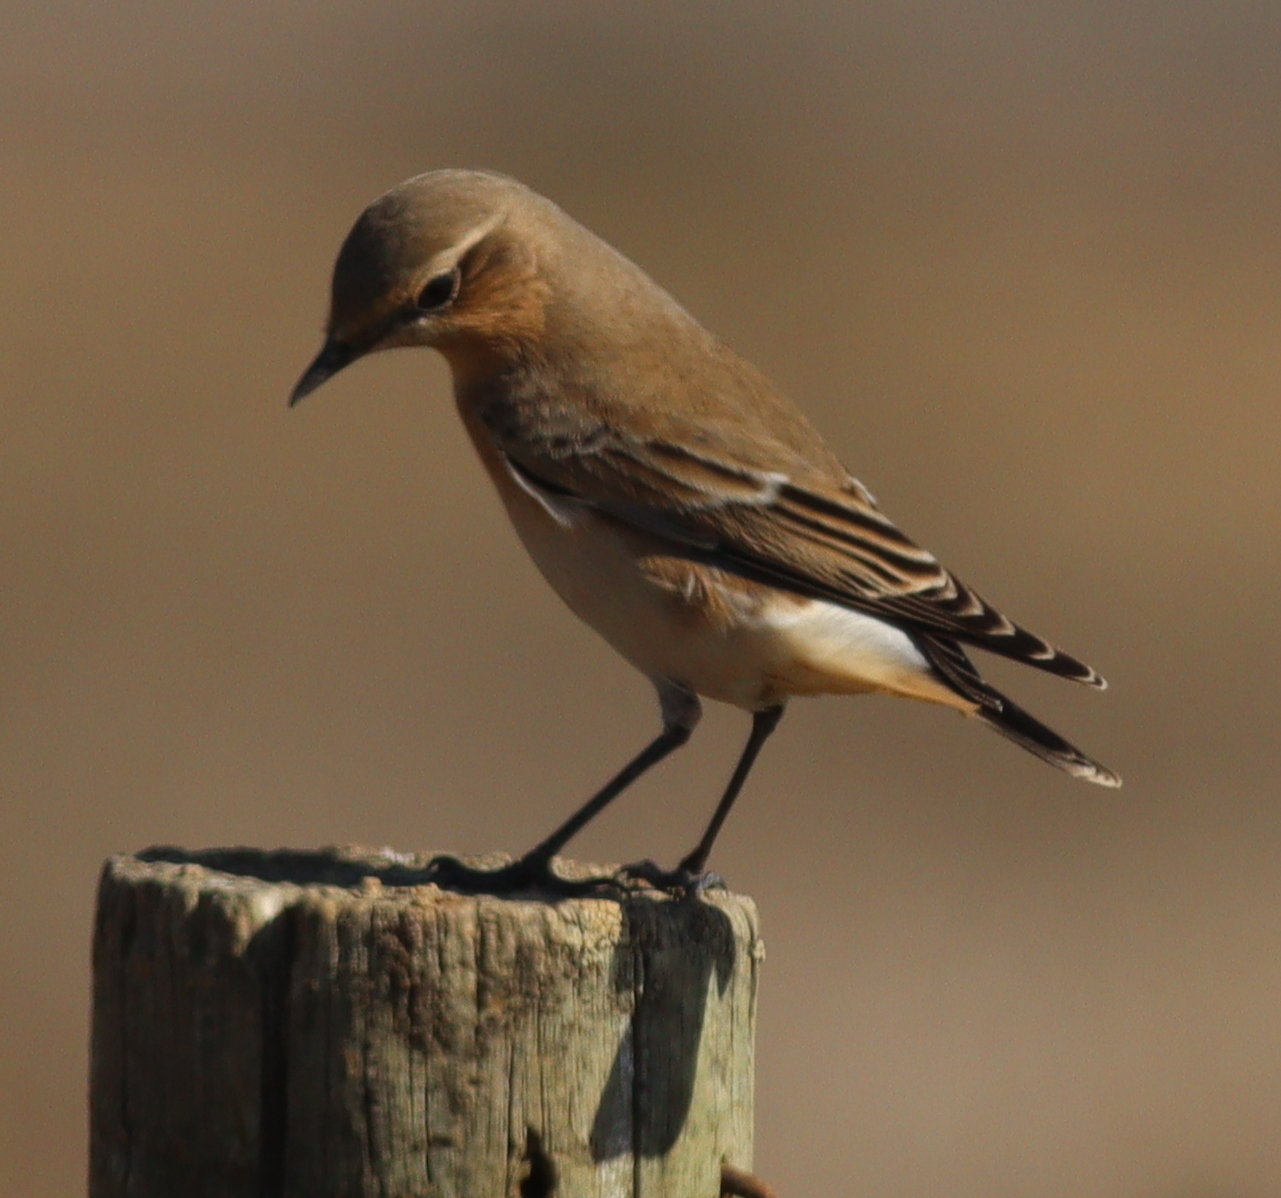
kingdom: Animalia
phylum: Chordata
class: Aves
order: Passeriformes
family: Muscicapidae
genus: Oenanthe
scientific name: Oenanthe oenanthe
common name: Northern wheatear
